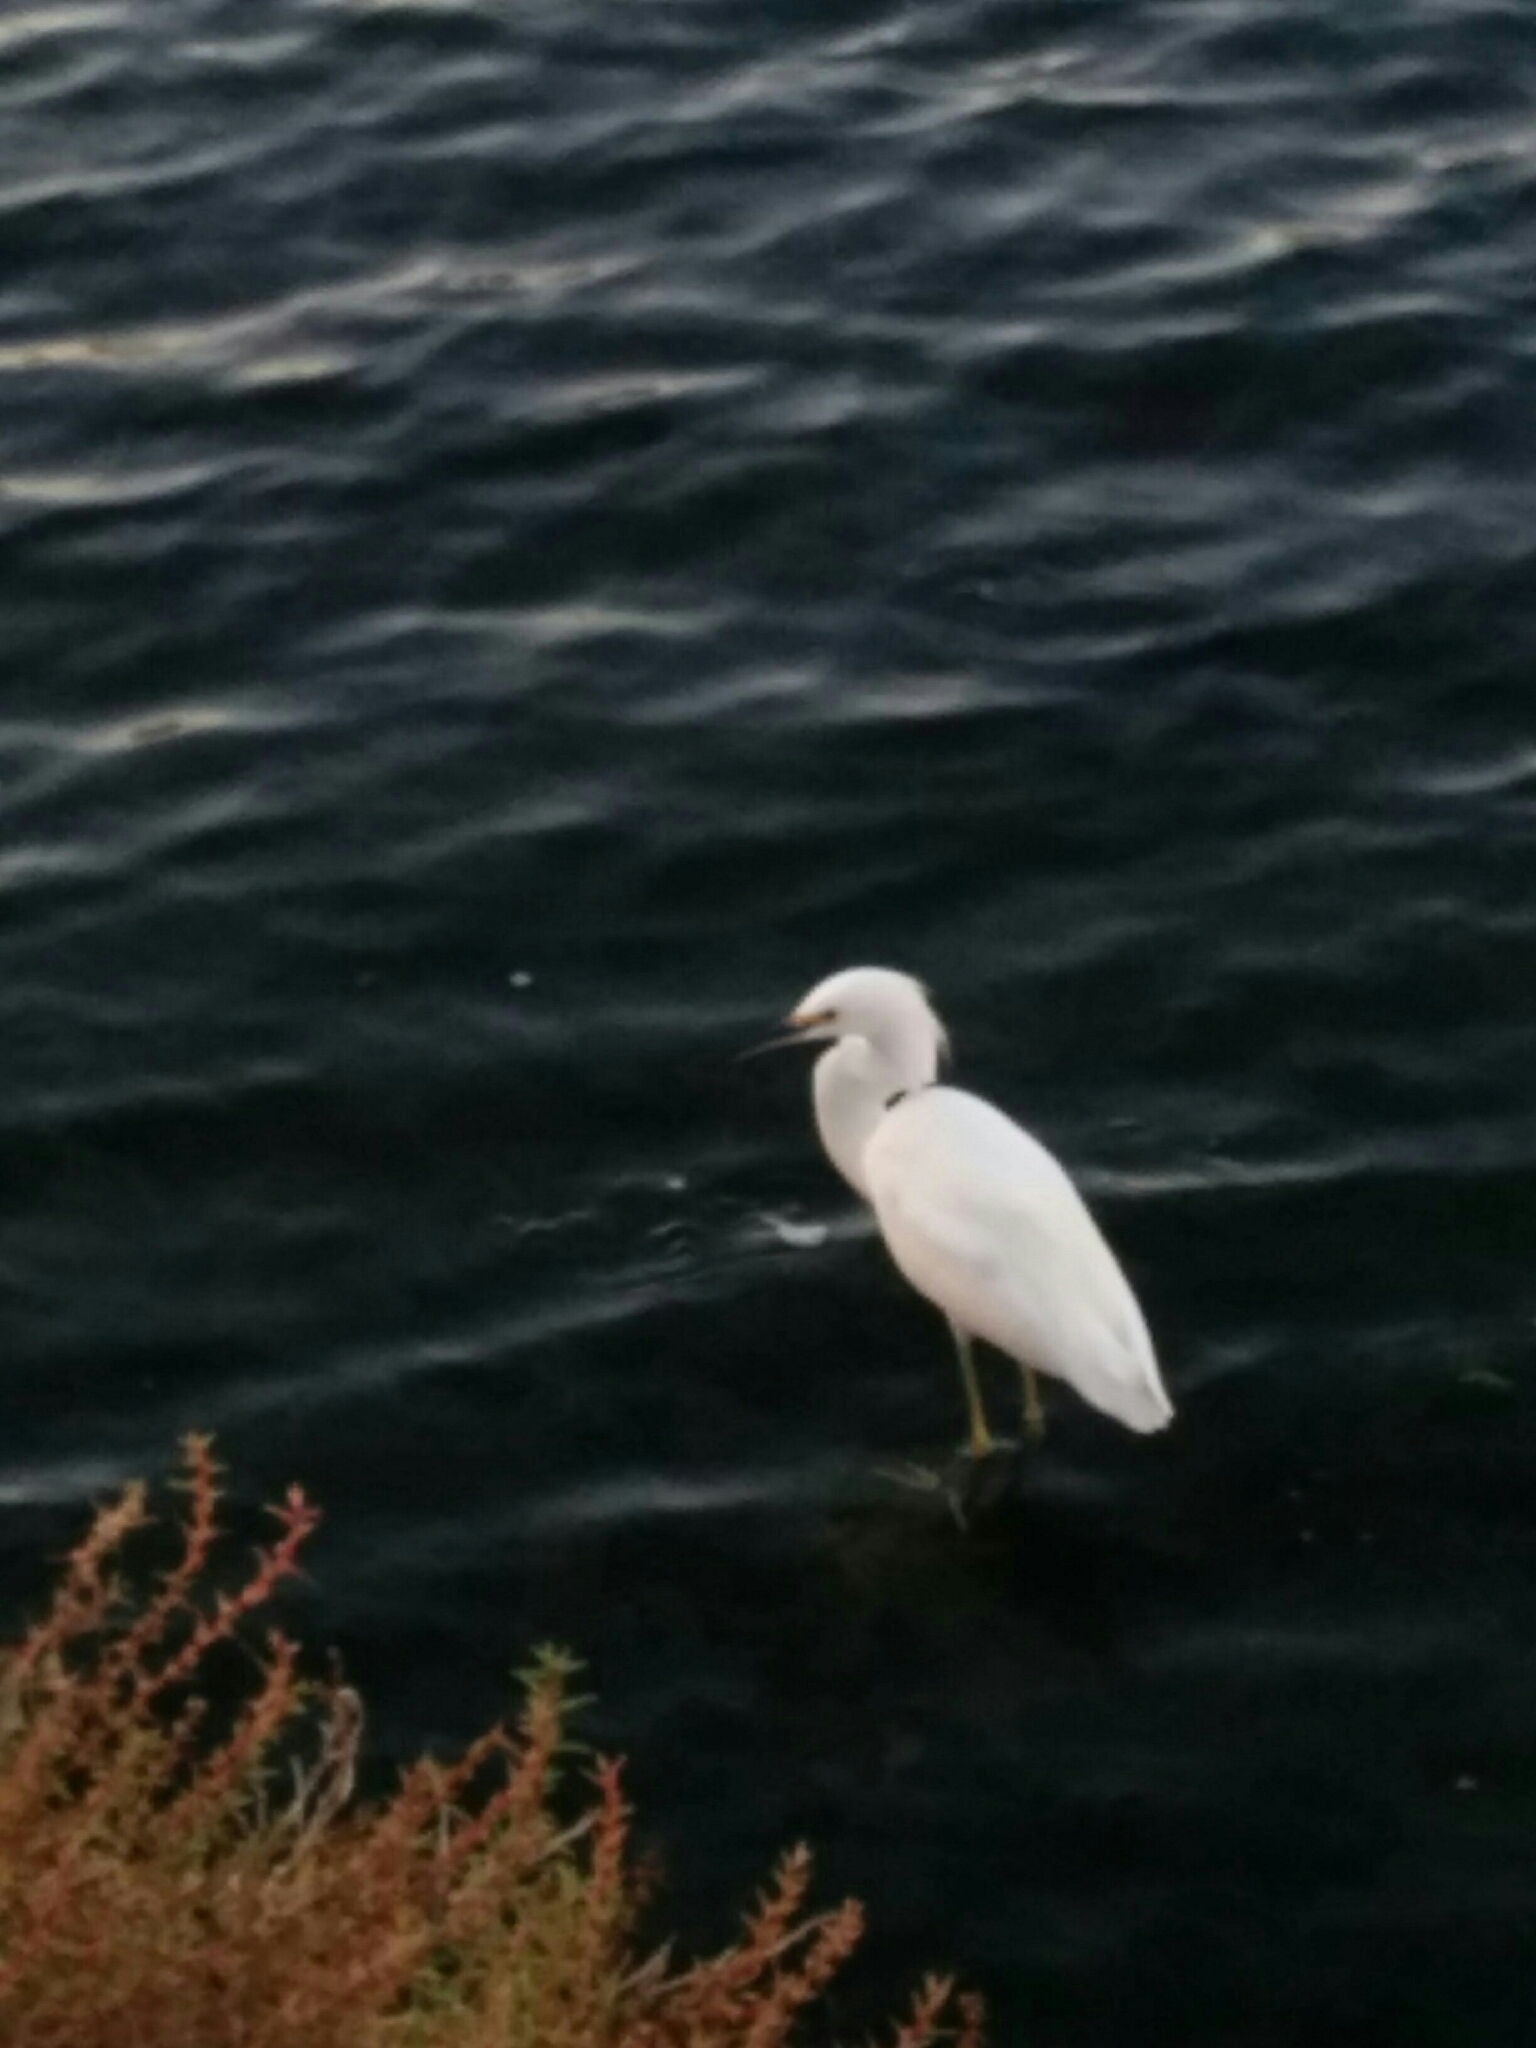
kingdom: Animalia
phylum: Chordata
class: Aves
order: Pelecaniformes
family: Ardeidae
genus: Egretta
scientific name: Egretta thula
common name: Snowy egret
